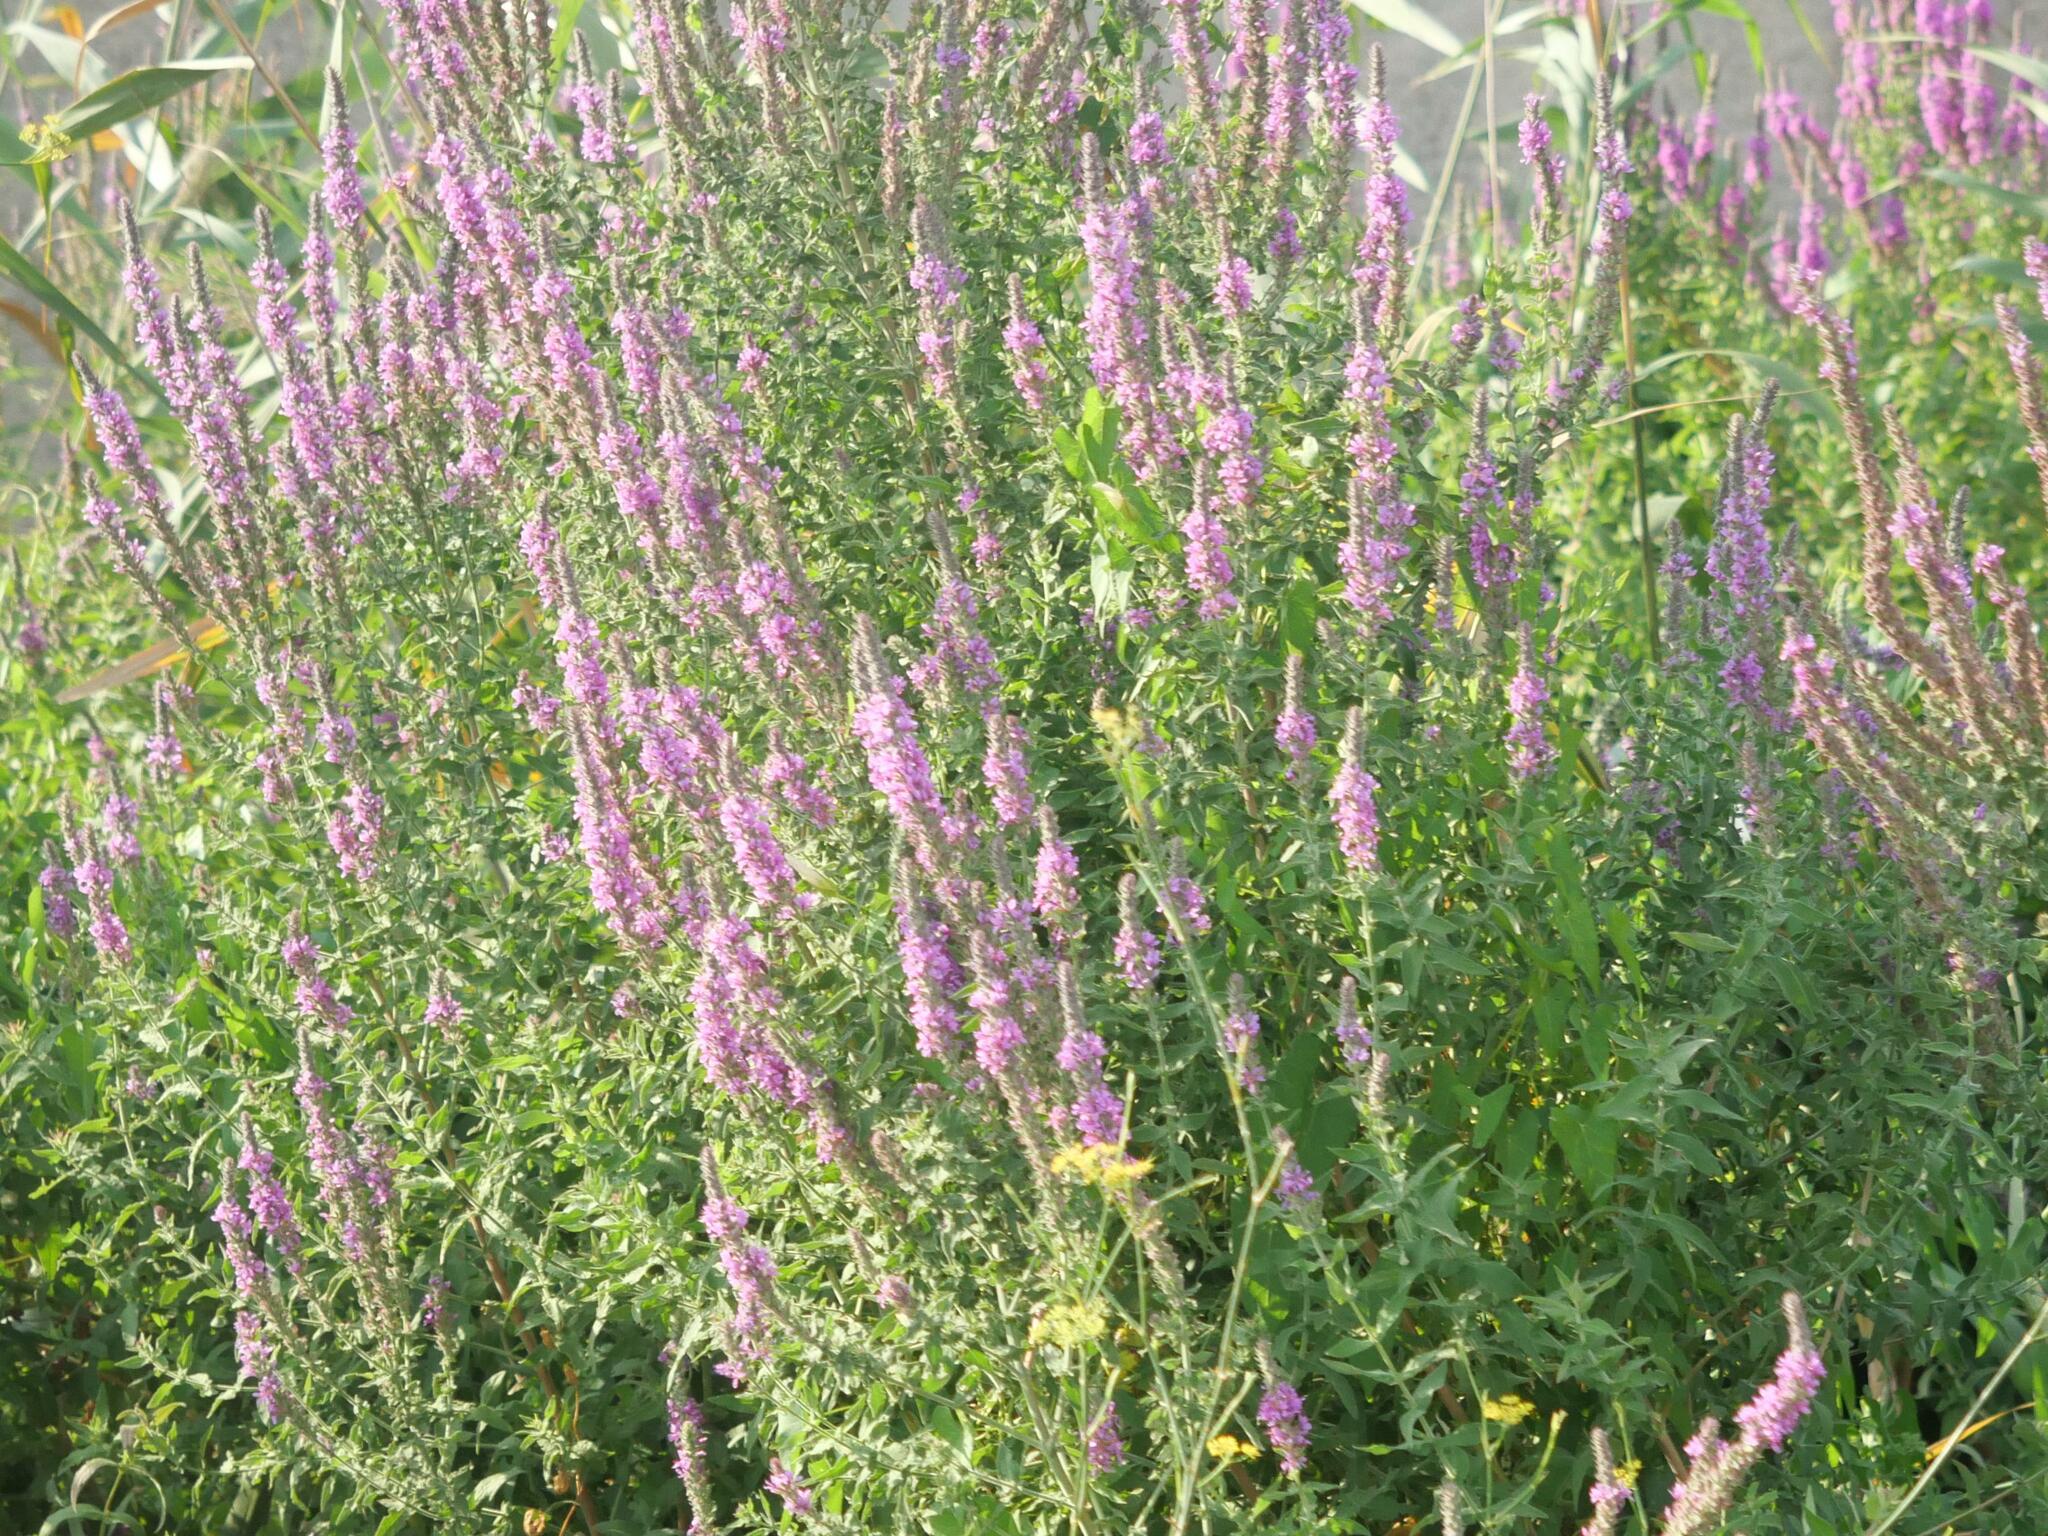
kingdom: Plantae
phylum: Tracheophyta
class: Magnoliopsida
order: Myrtales
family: Lythraceae
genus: Lythrum
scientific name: Lythrum salicaria
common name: Purple loosestrife
